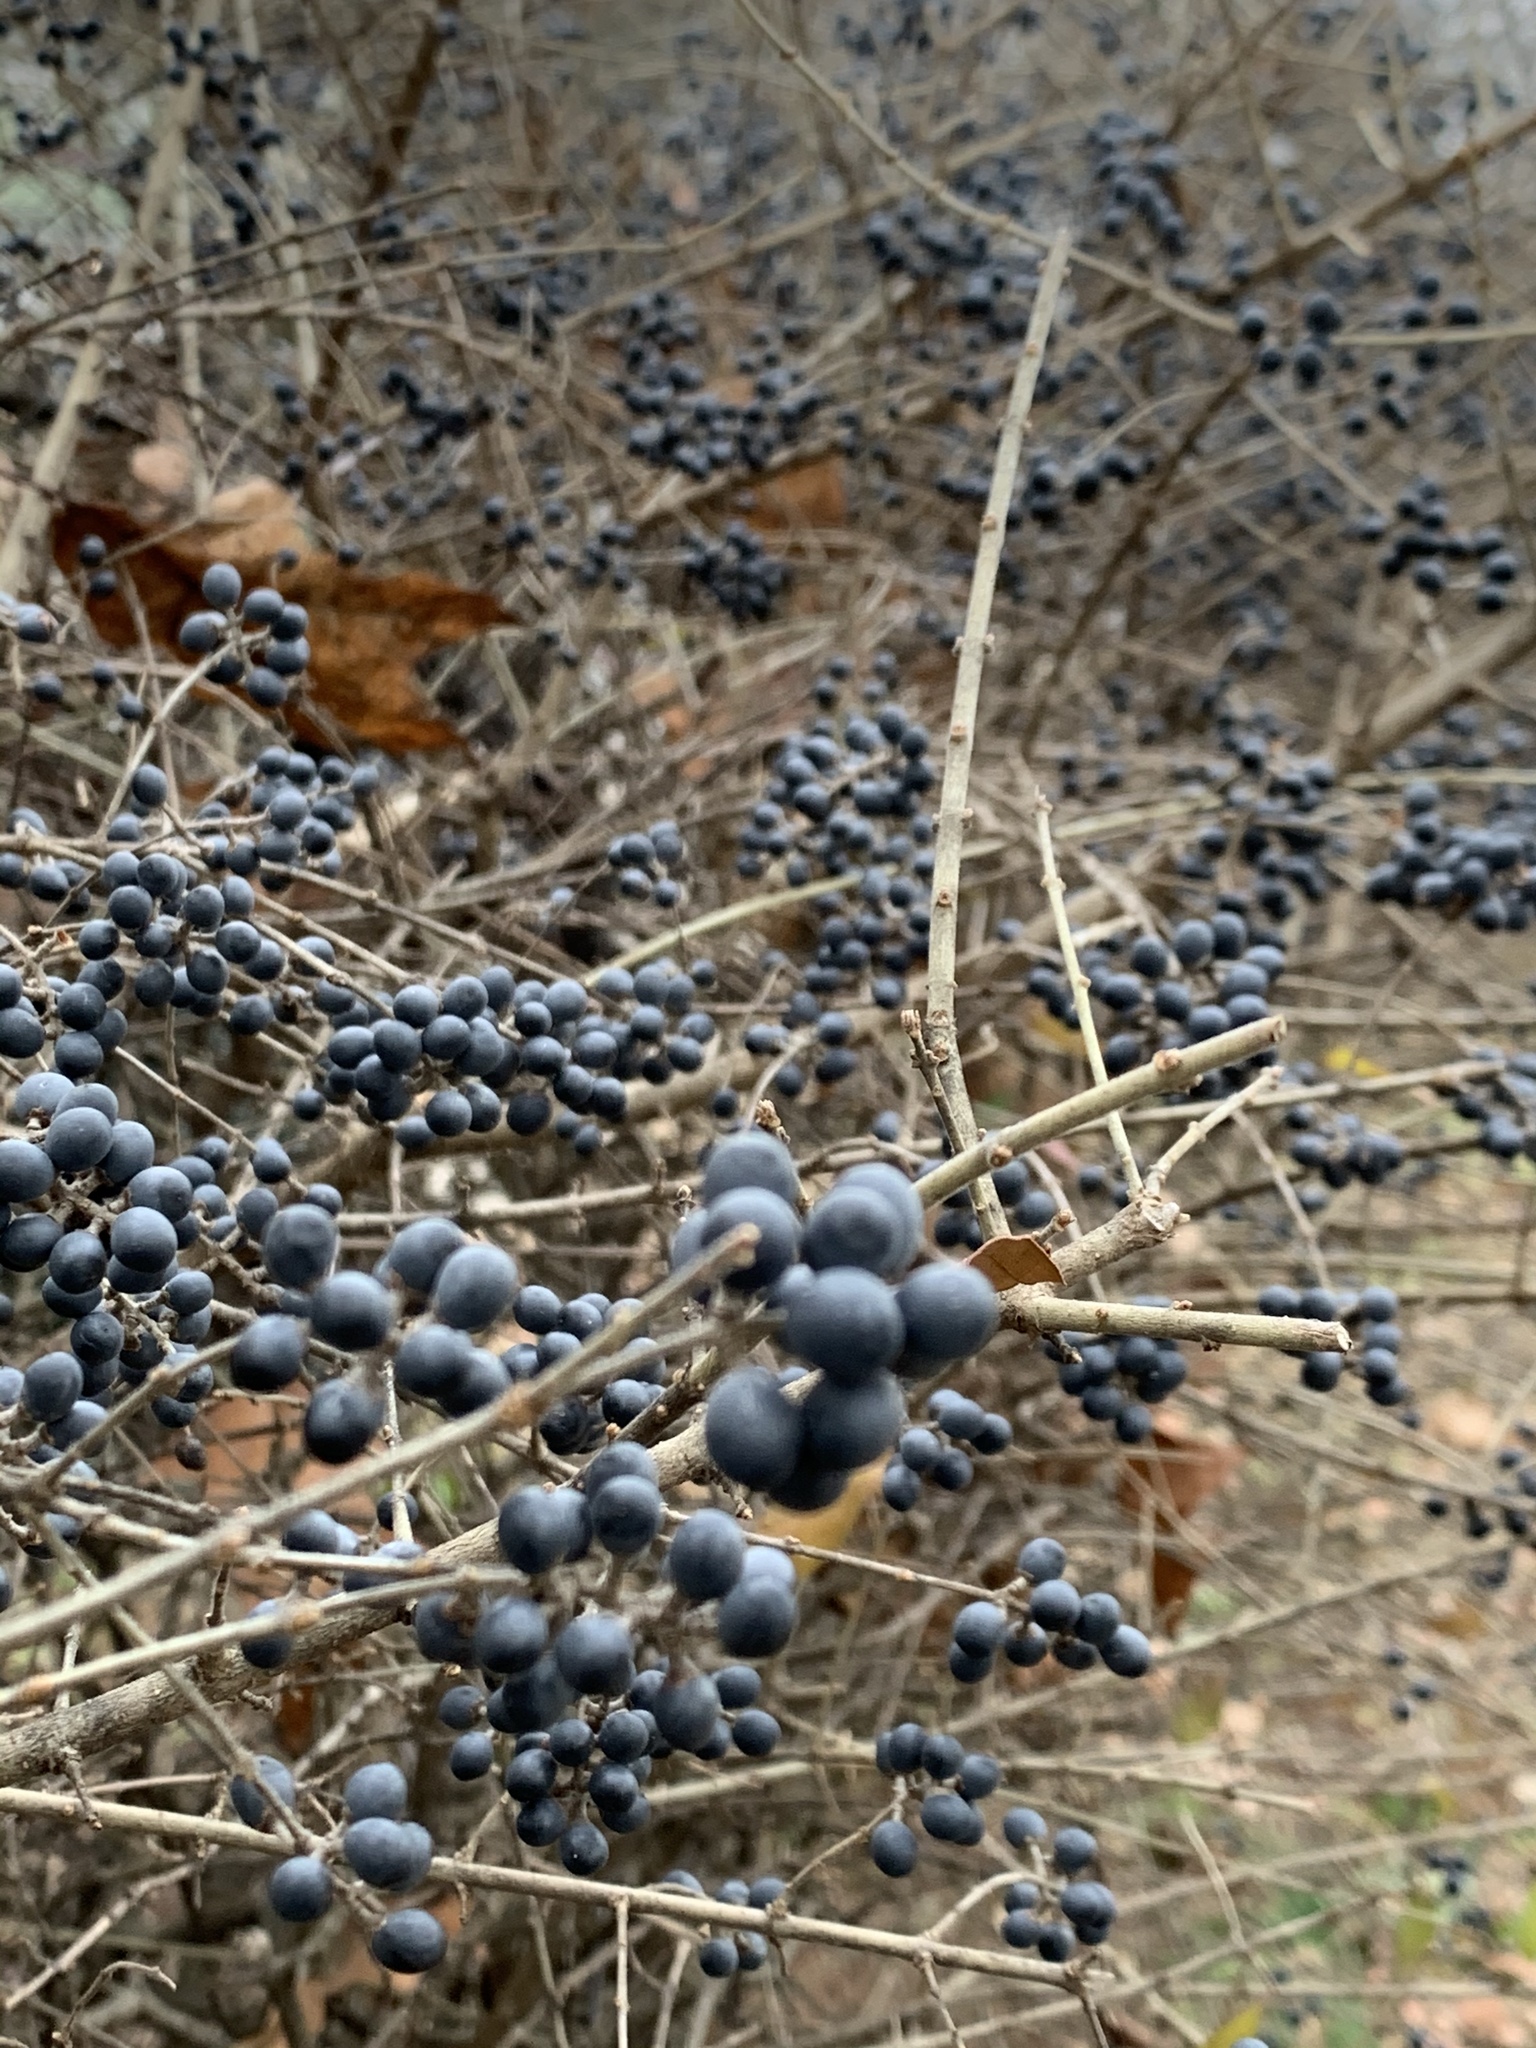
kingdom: Plantae
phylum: Tracheophyta
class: Magnoliopsida
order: Lamiales
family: Oleaceae
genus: Ligustrum
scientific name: Ligustrum obtusifolium
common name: Border privet
